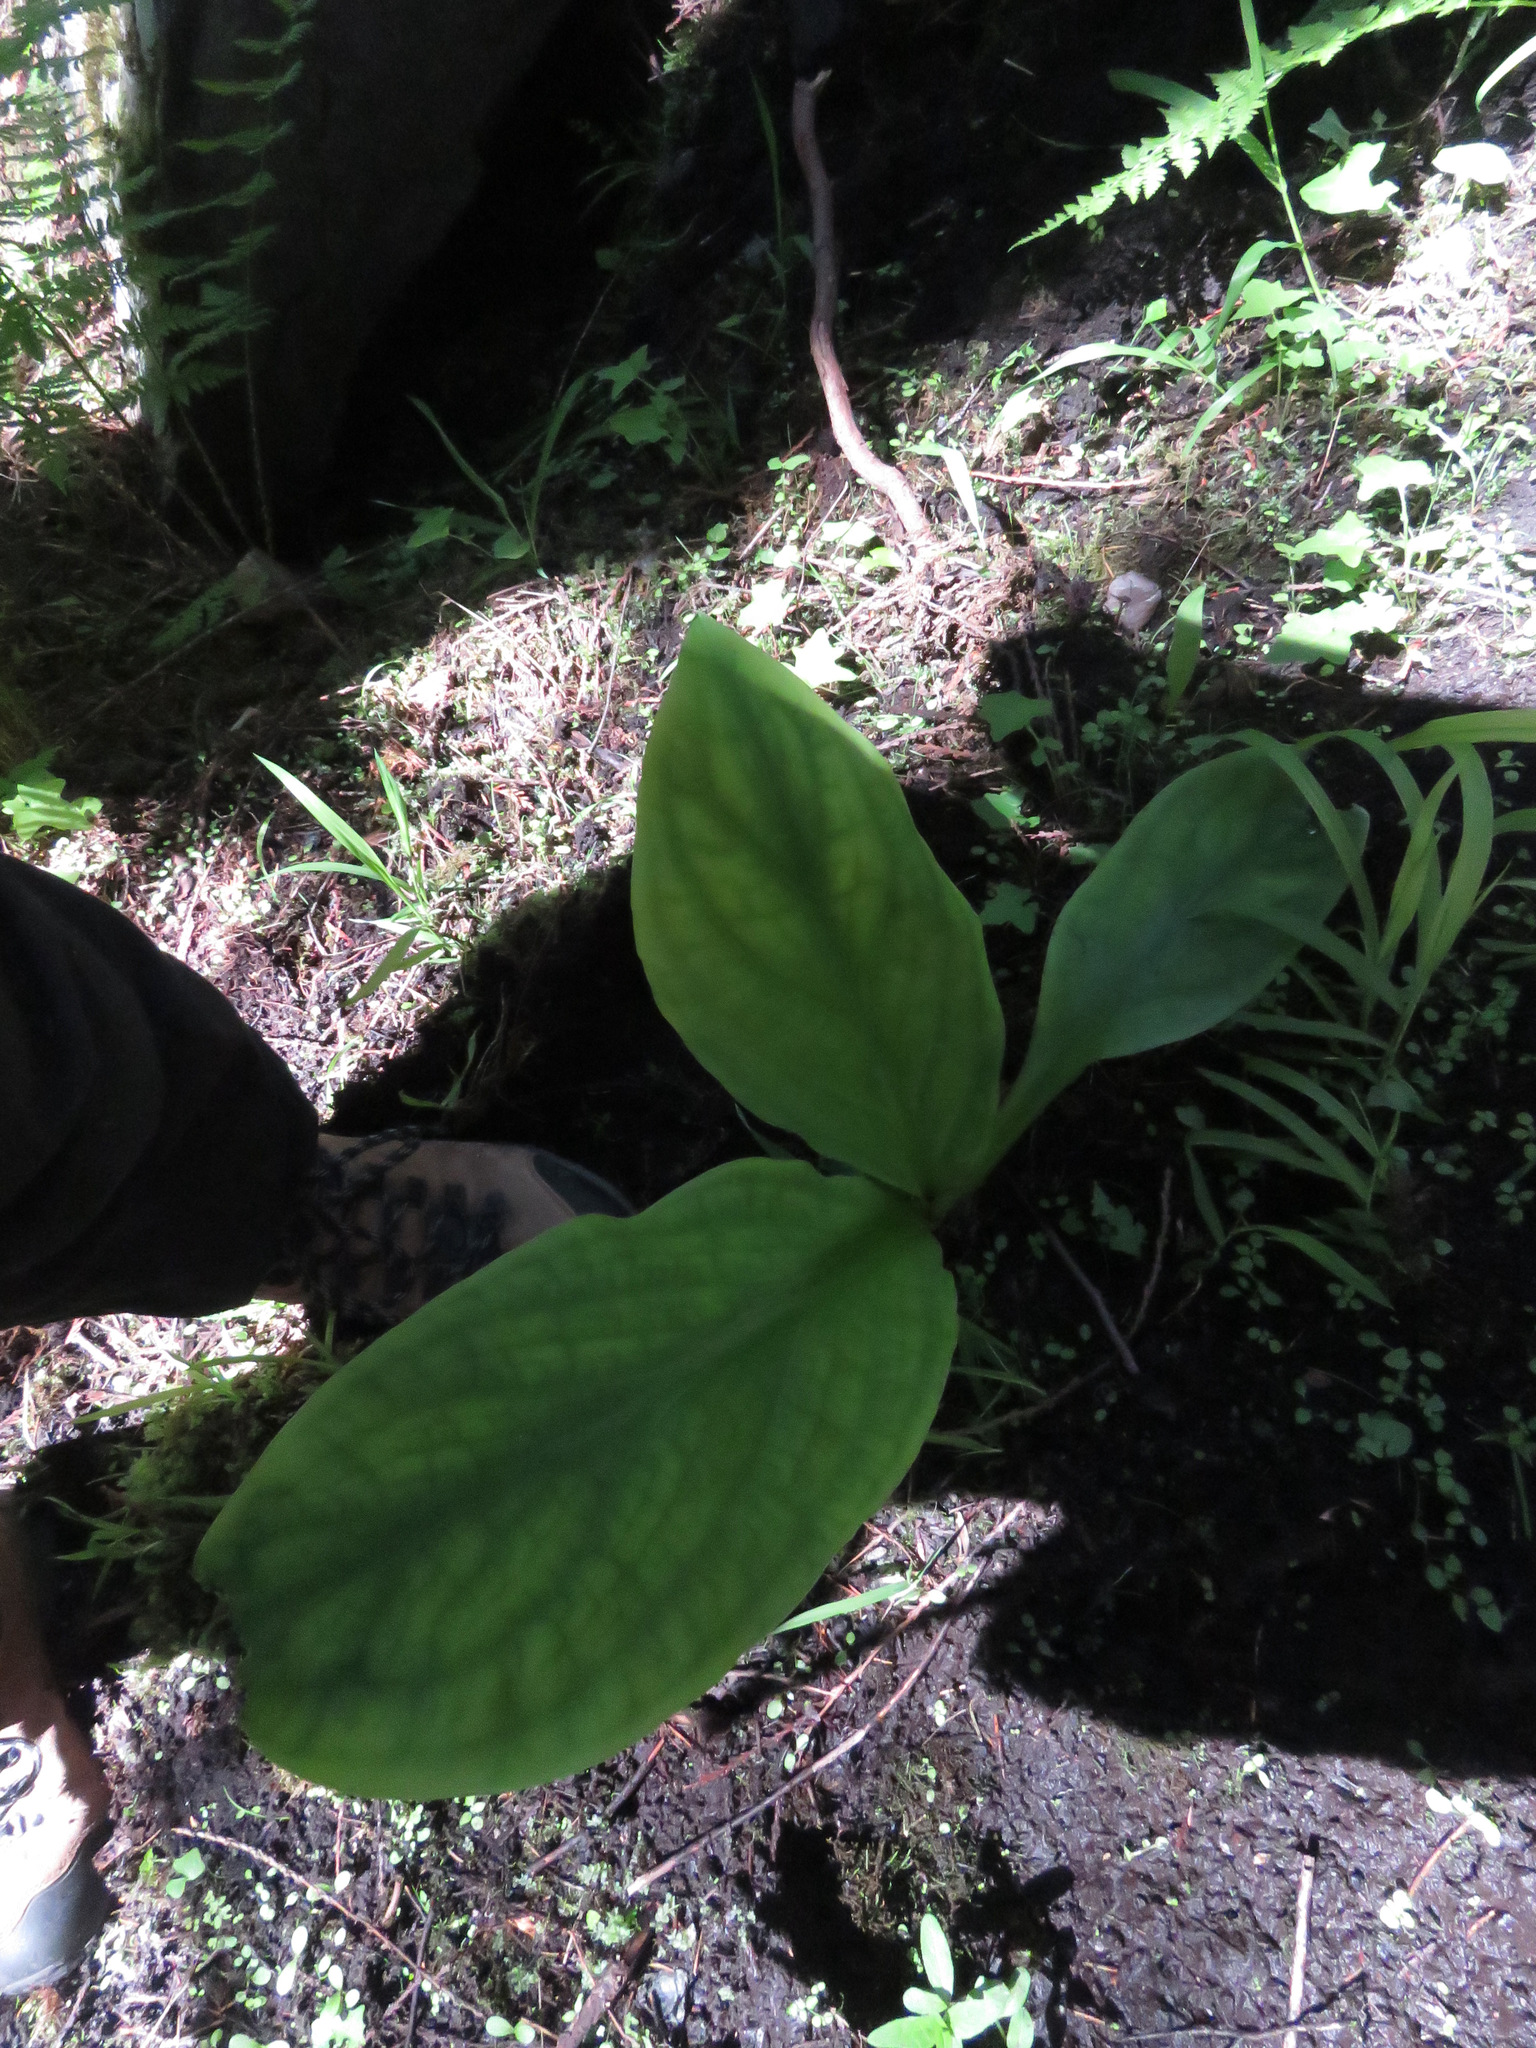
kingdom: Plantae
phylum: Tracheophyta
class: Liliopsida
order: Alismatales
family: Araceae
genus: Lysichiton
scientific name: Lysichiton americanus
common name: American skunk cabbage
